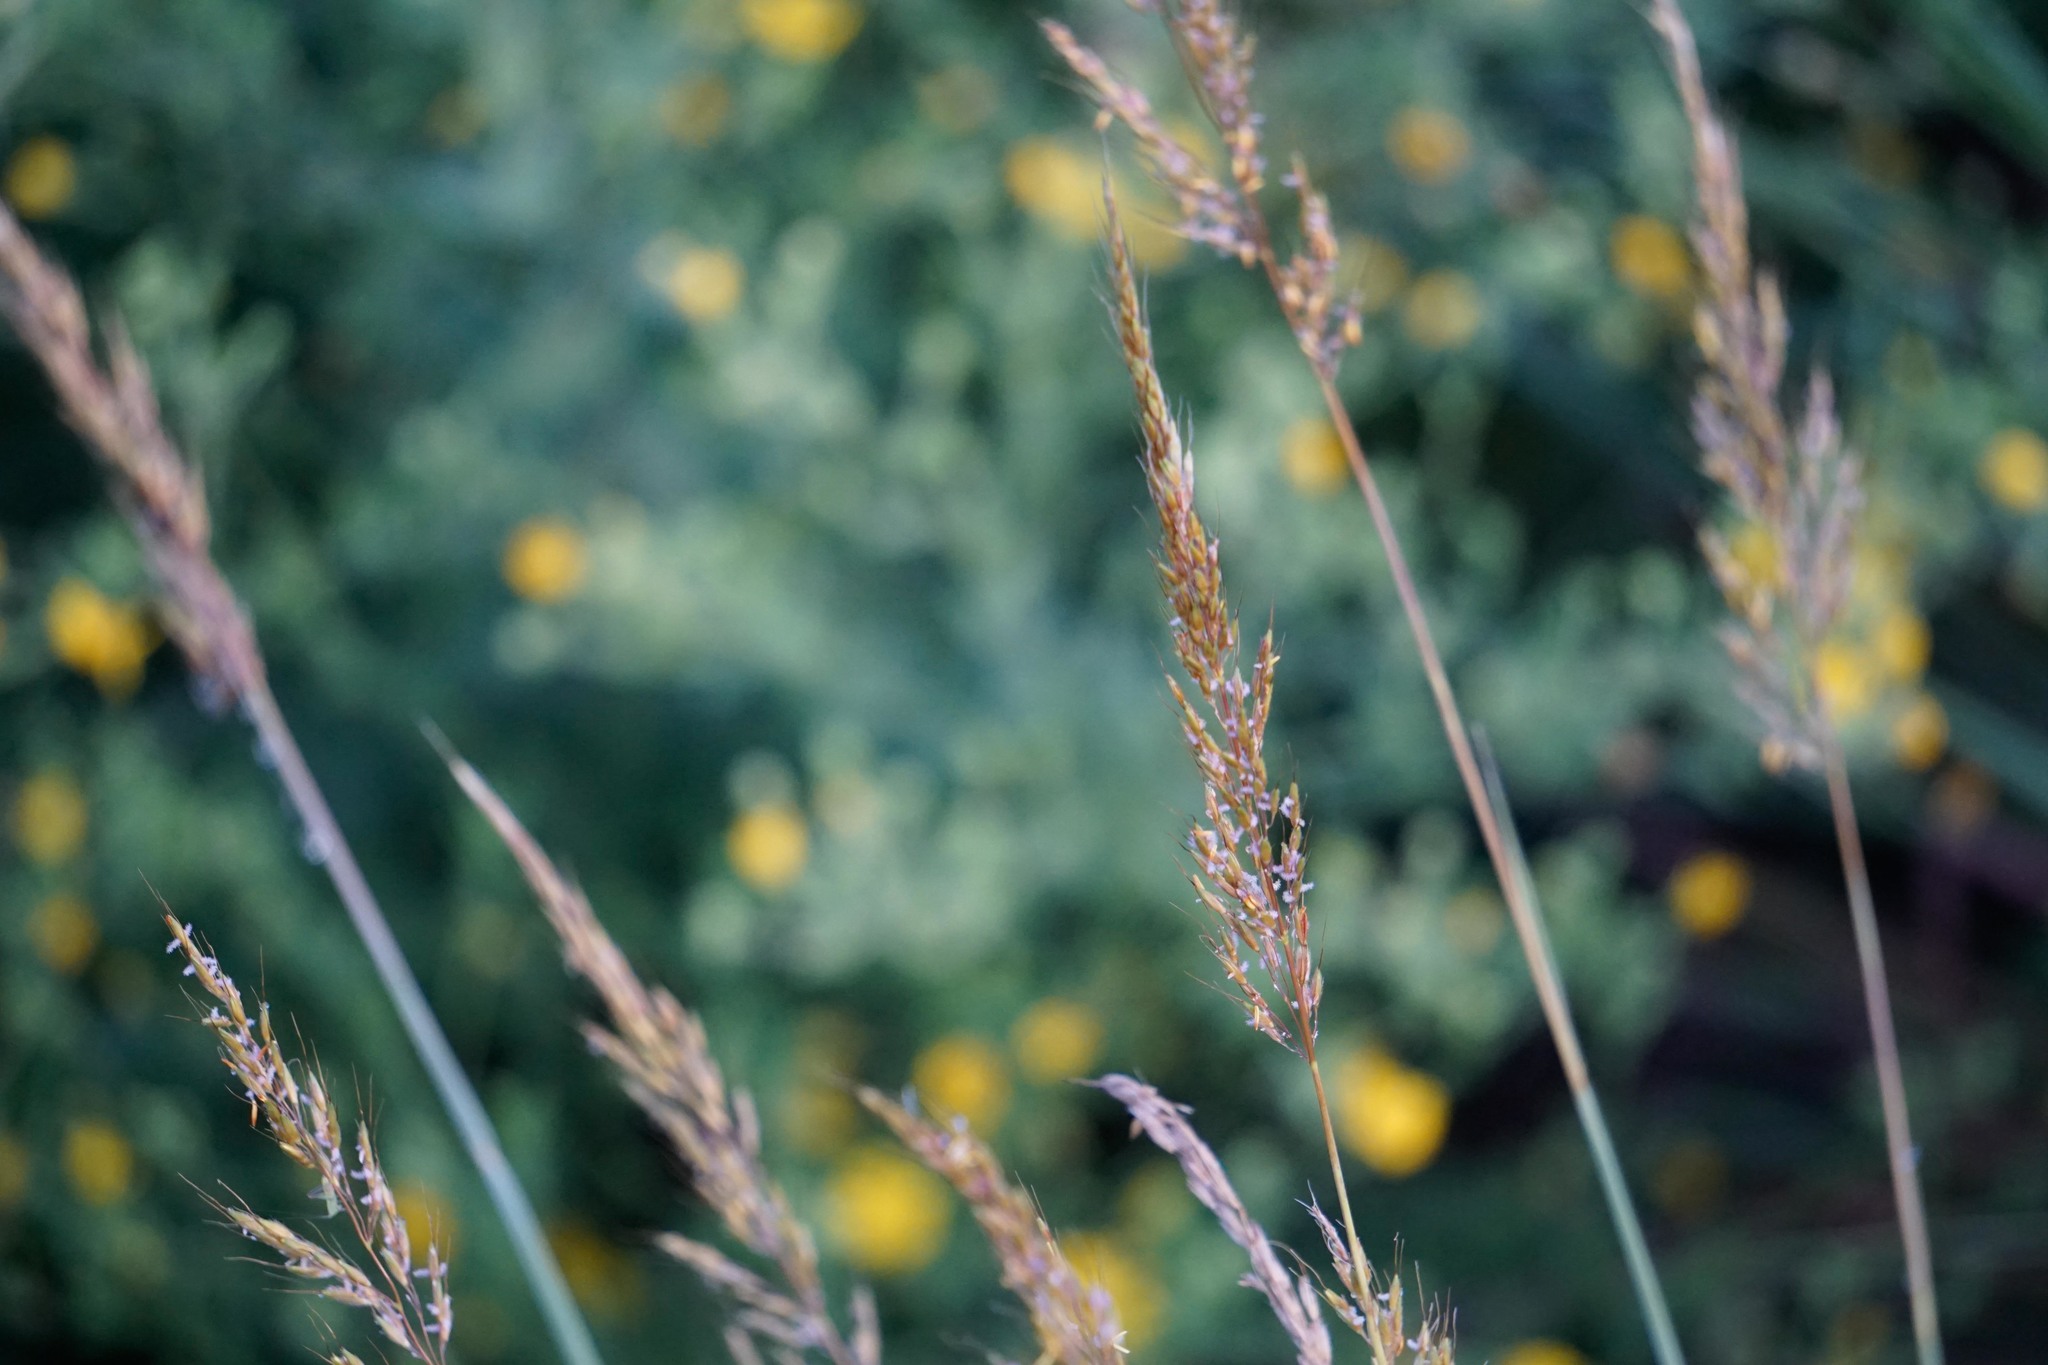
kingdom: Plantae
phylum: Tracheophyta
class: Liliopsida
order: Poales
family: Poaceae
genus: Sorghastrum
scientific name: Sorghastrum nutans
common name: Indian grass
